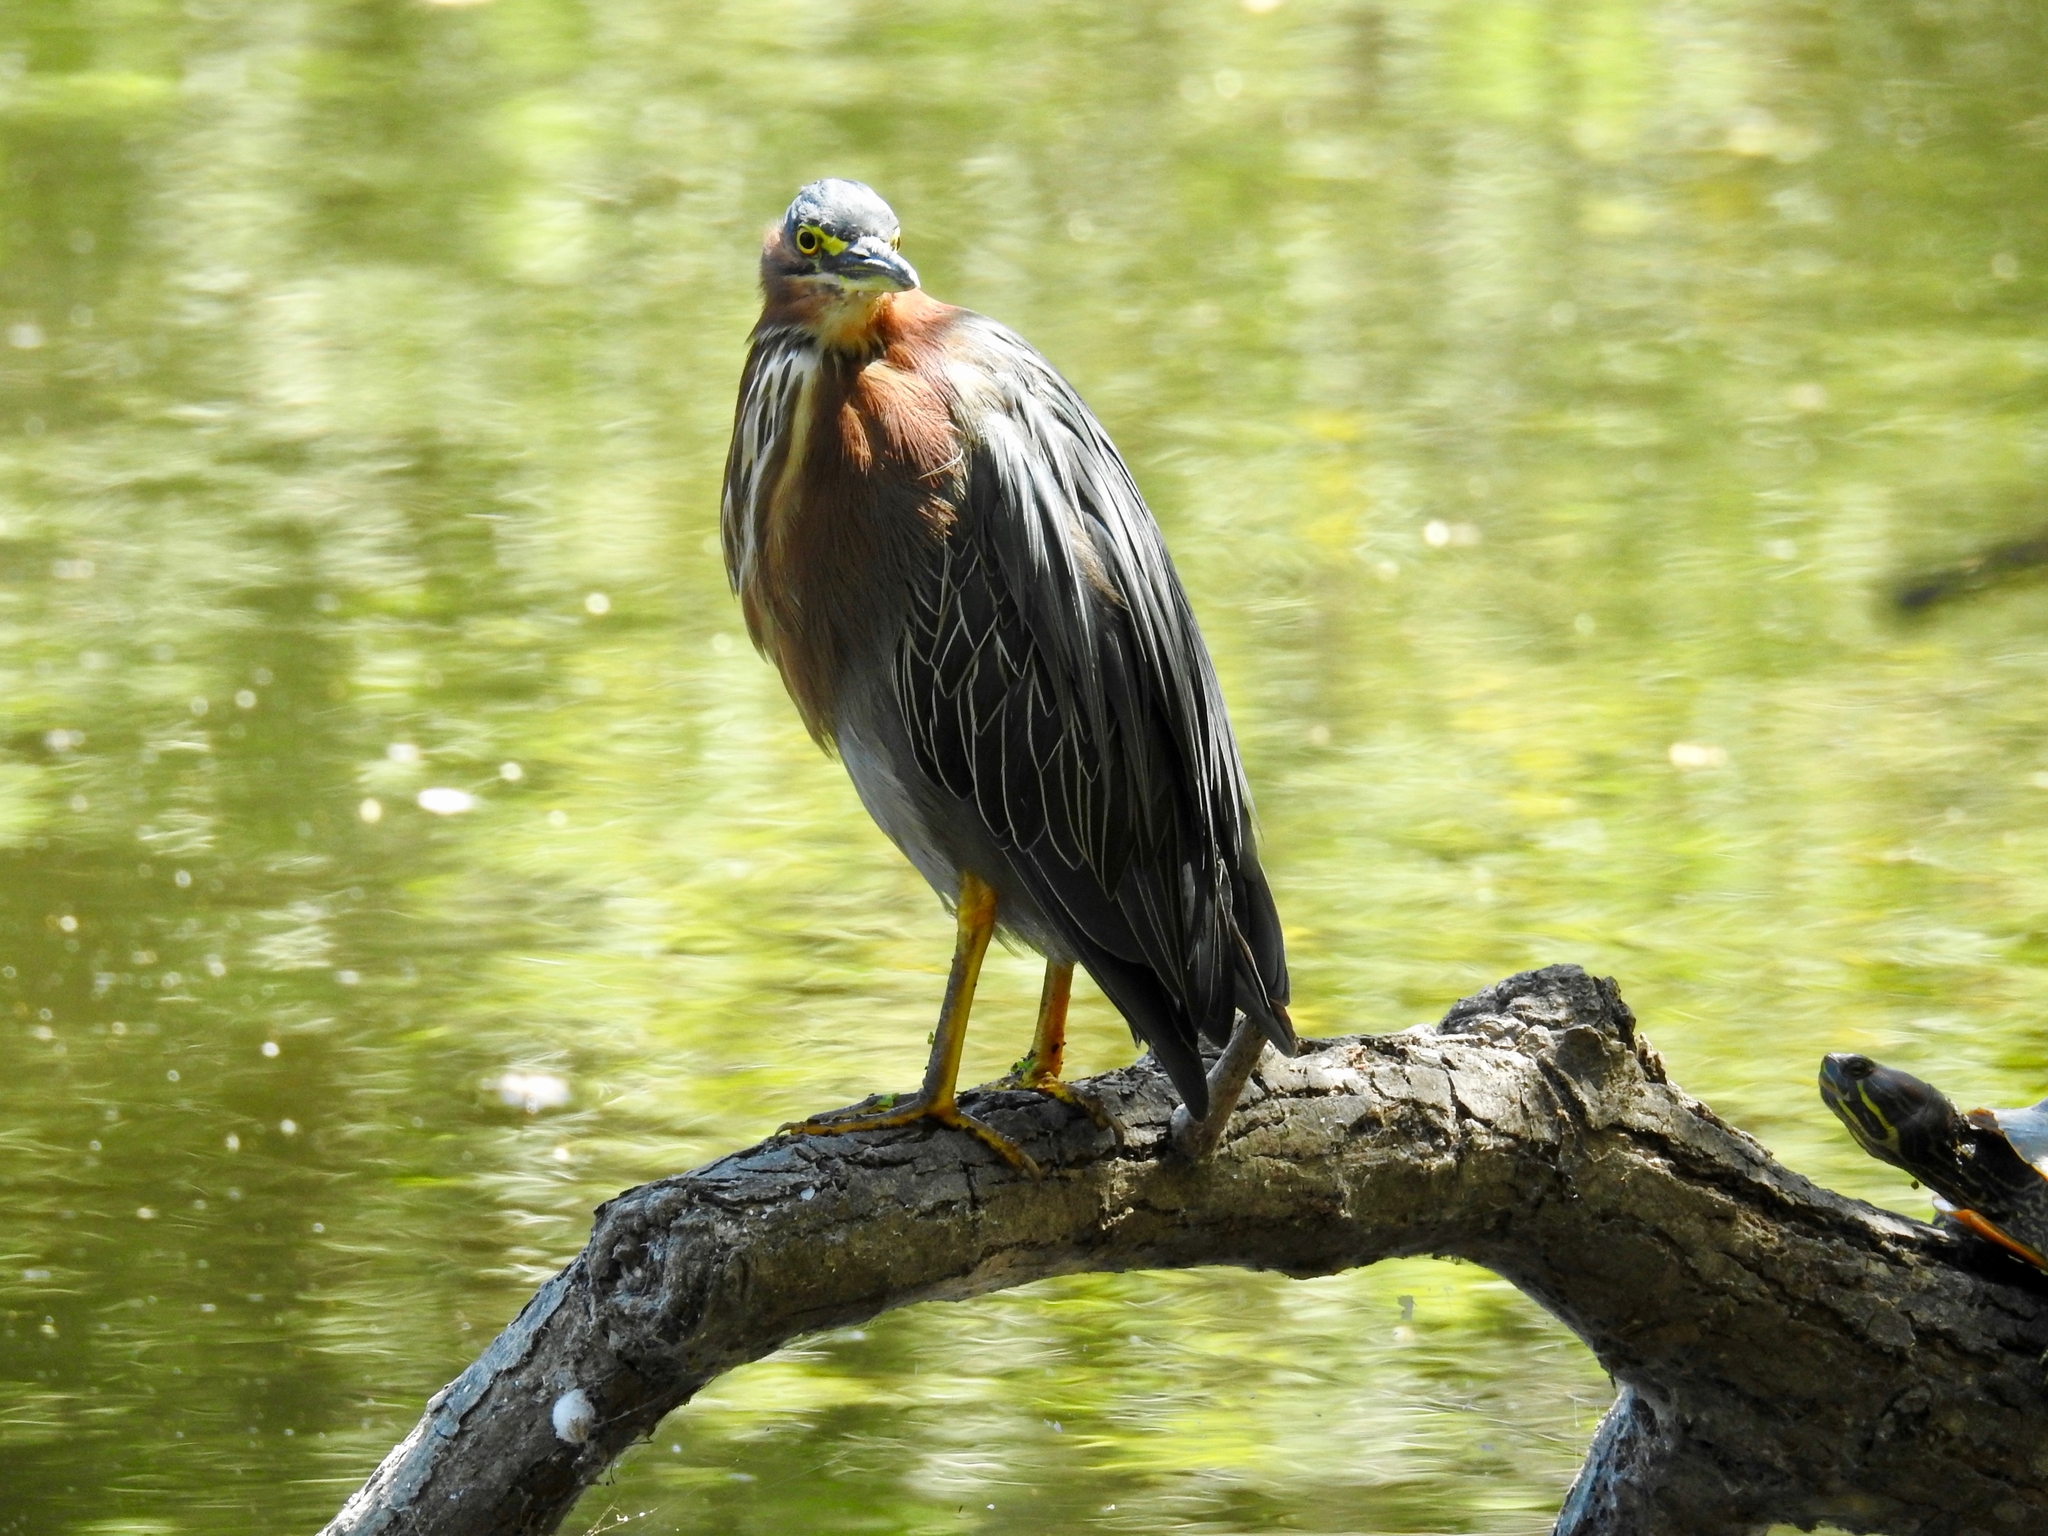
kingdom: Animalia
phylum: Chordata
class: Aves
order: Pelecaniformes
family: Ardeidae
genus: Butorides
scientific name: Butorides virescens
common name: Green heron
